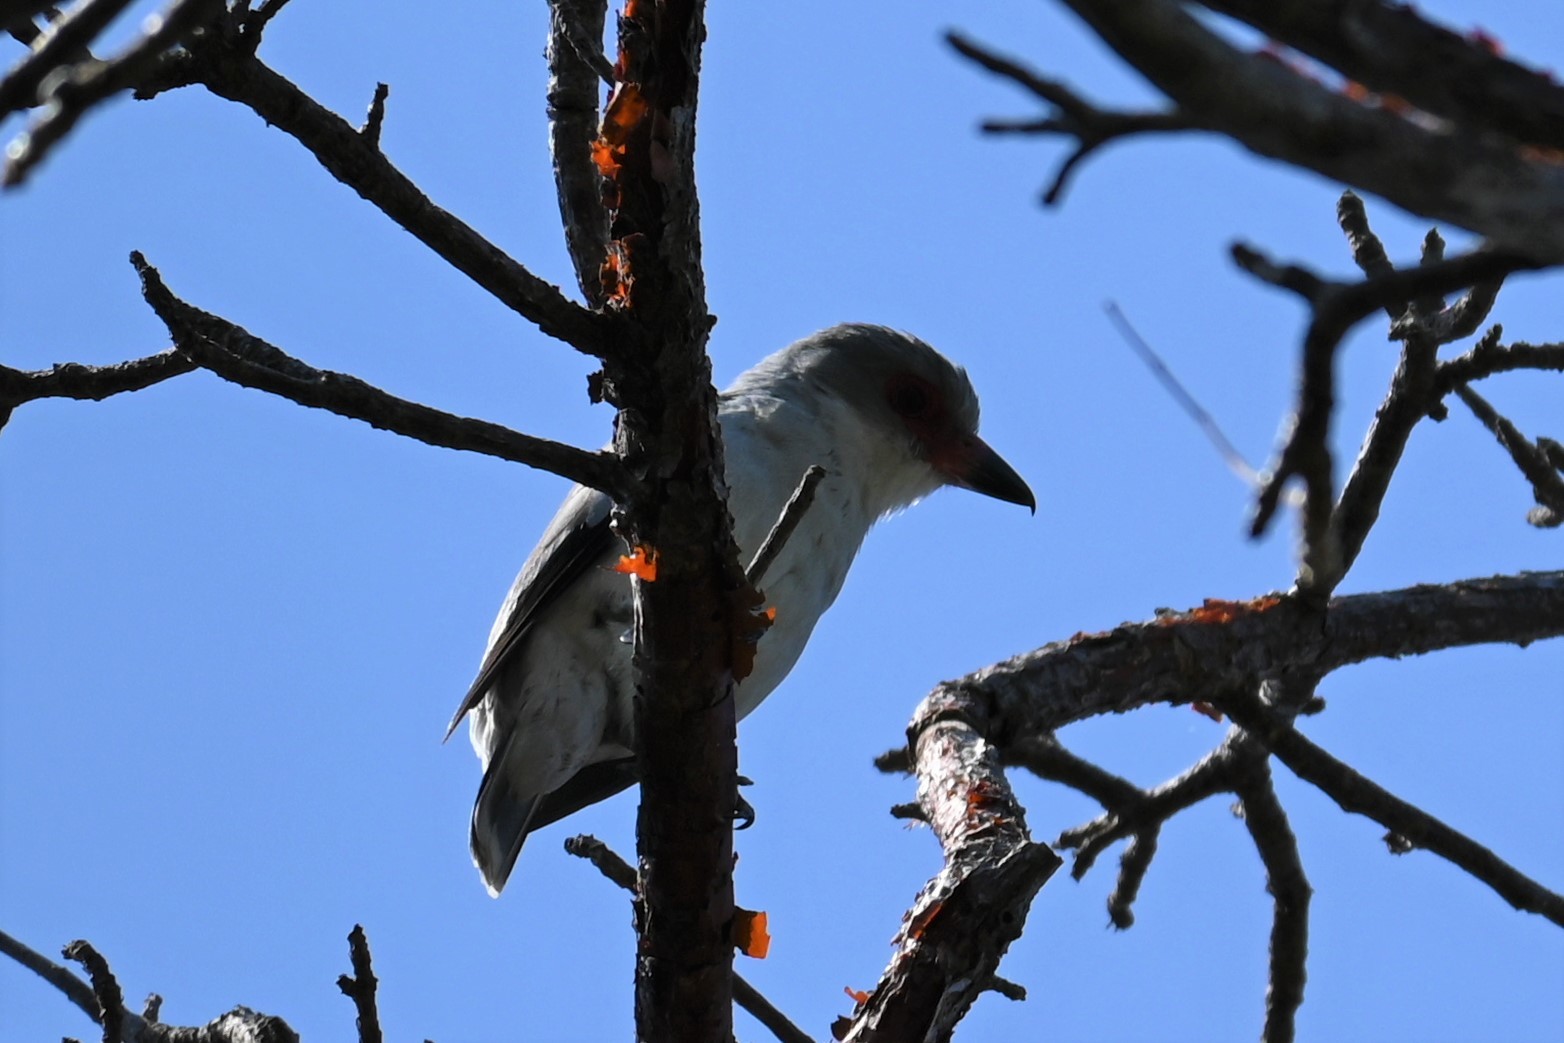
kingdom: Animalia
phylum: Chordata
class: Aves
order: Passeriformes
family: Cotingidae
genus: Tityra
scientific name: Tityra semifasciata
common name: Masked tityra
